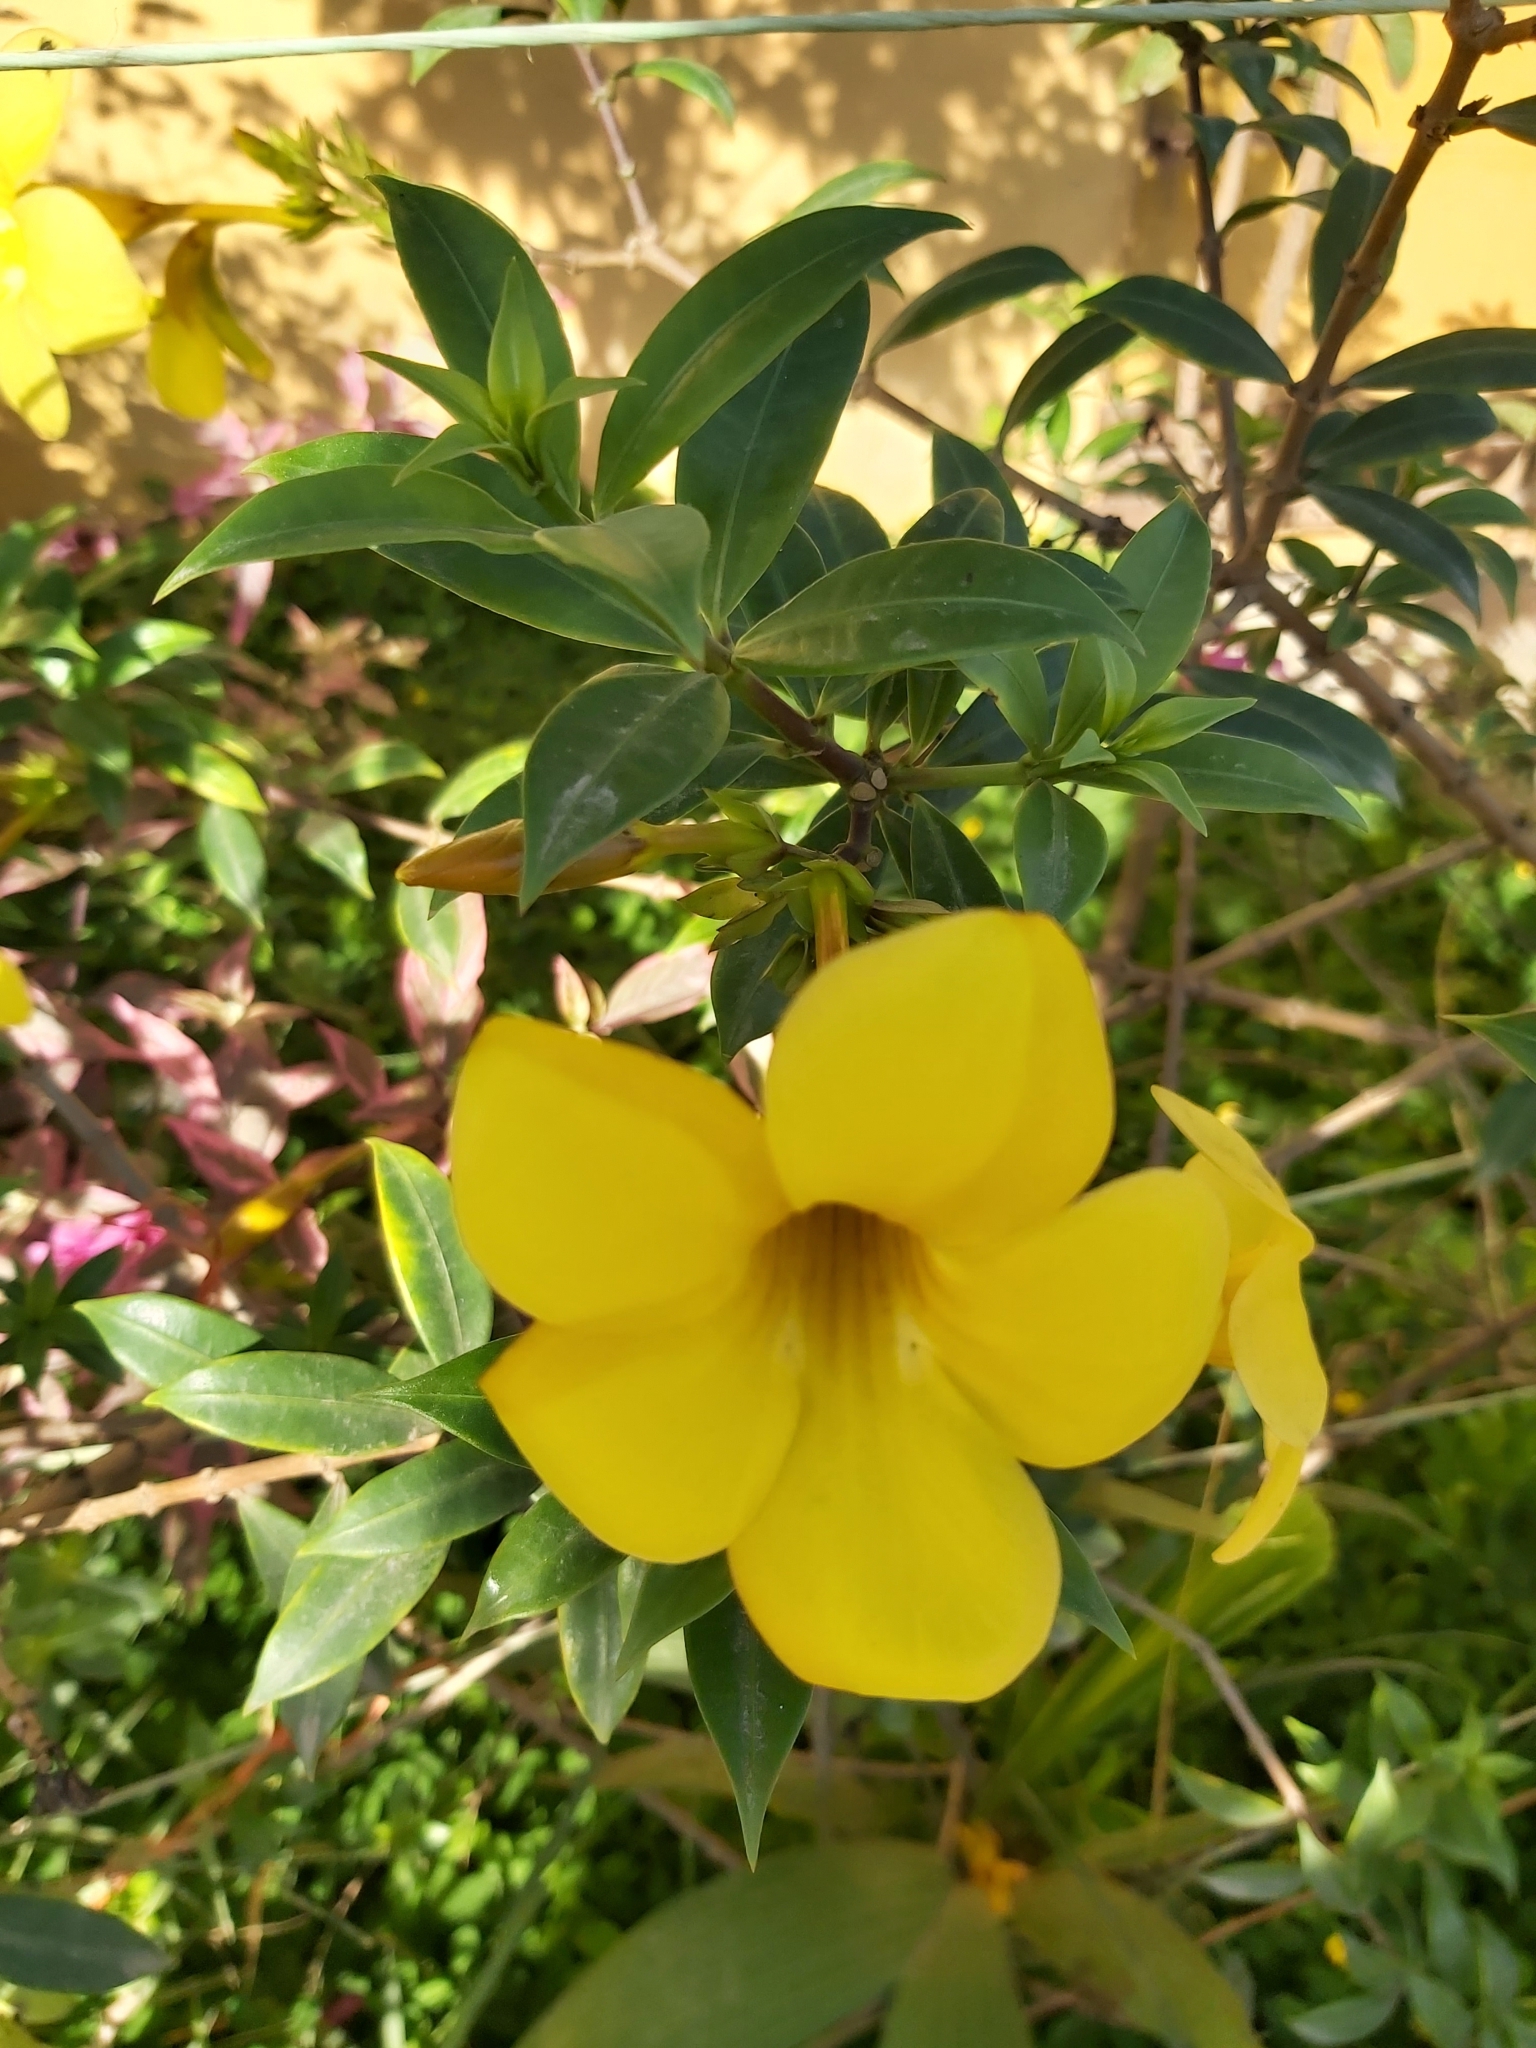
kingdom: Plantae
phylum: Tracheophyta
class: Magnoliopsida
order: Gentianales
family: Apocynaceae
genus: Allamanda
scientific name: Allamanda cathartica
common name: Golden trumpet
